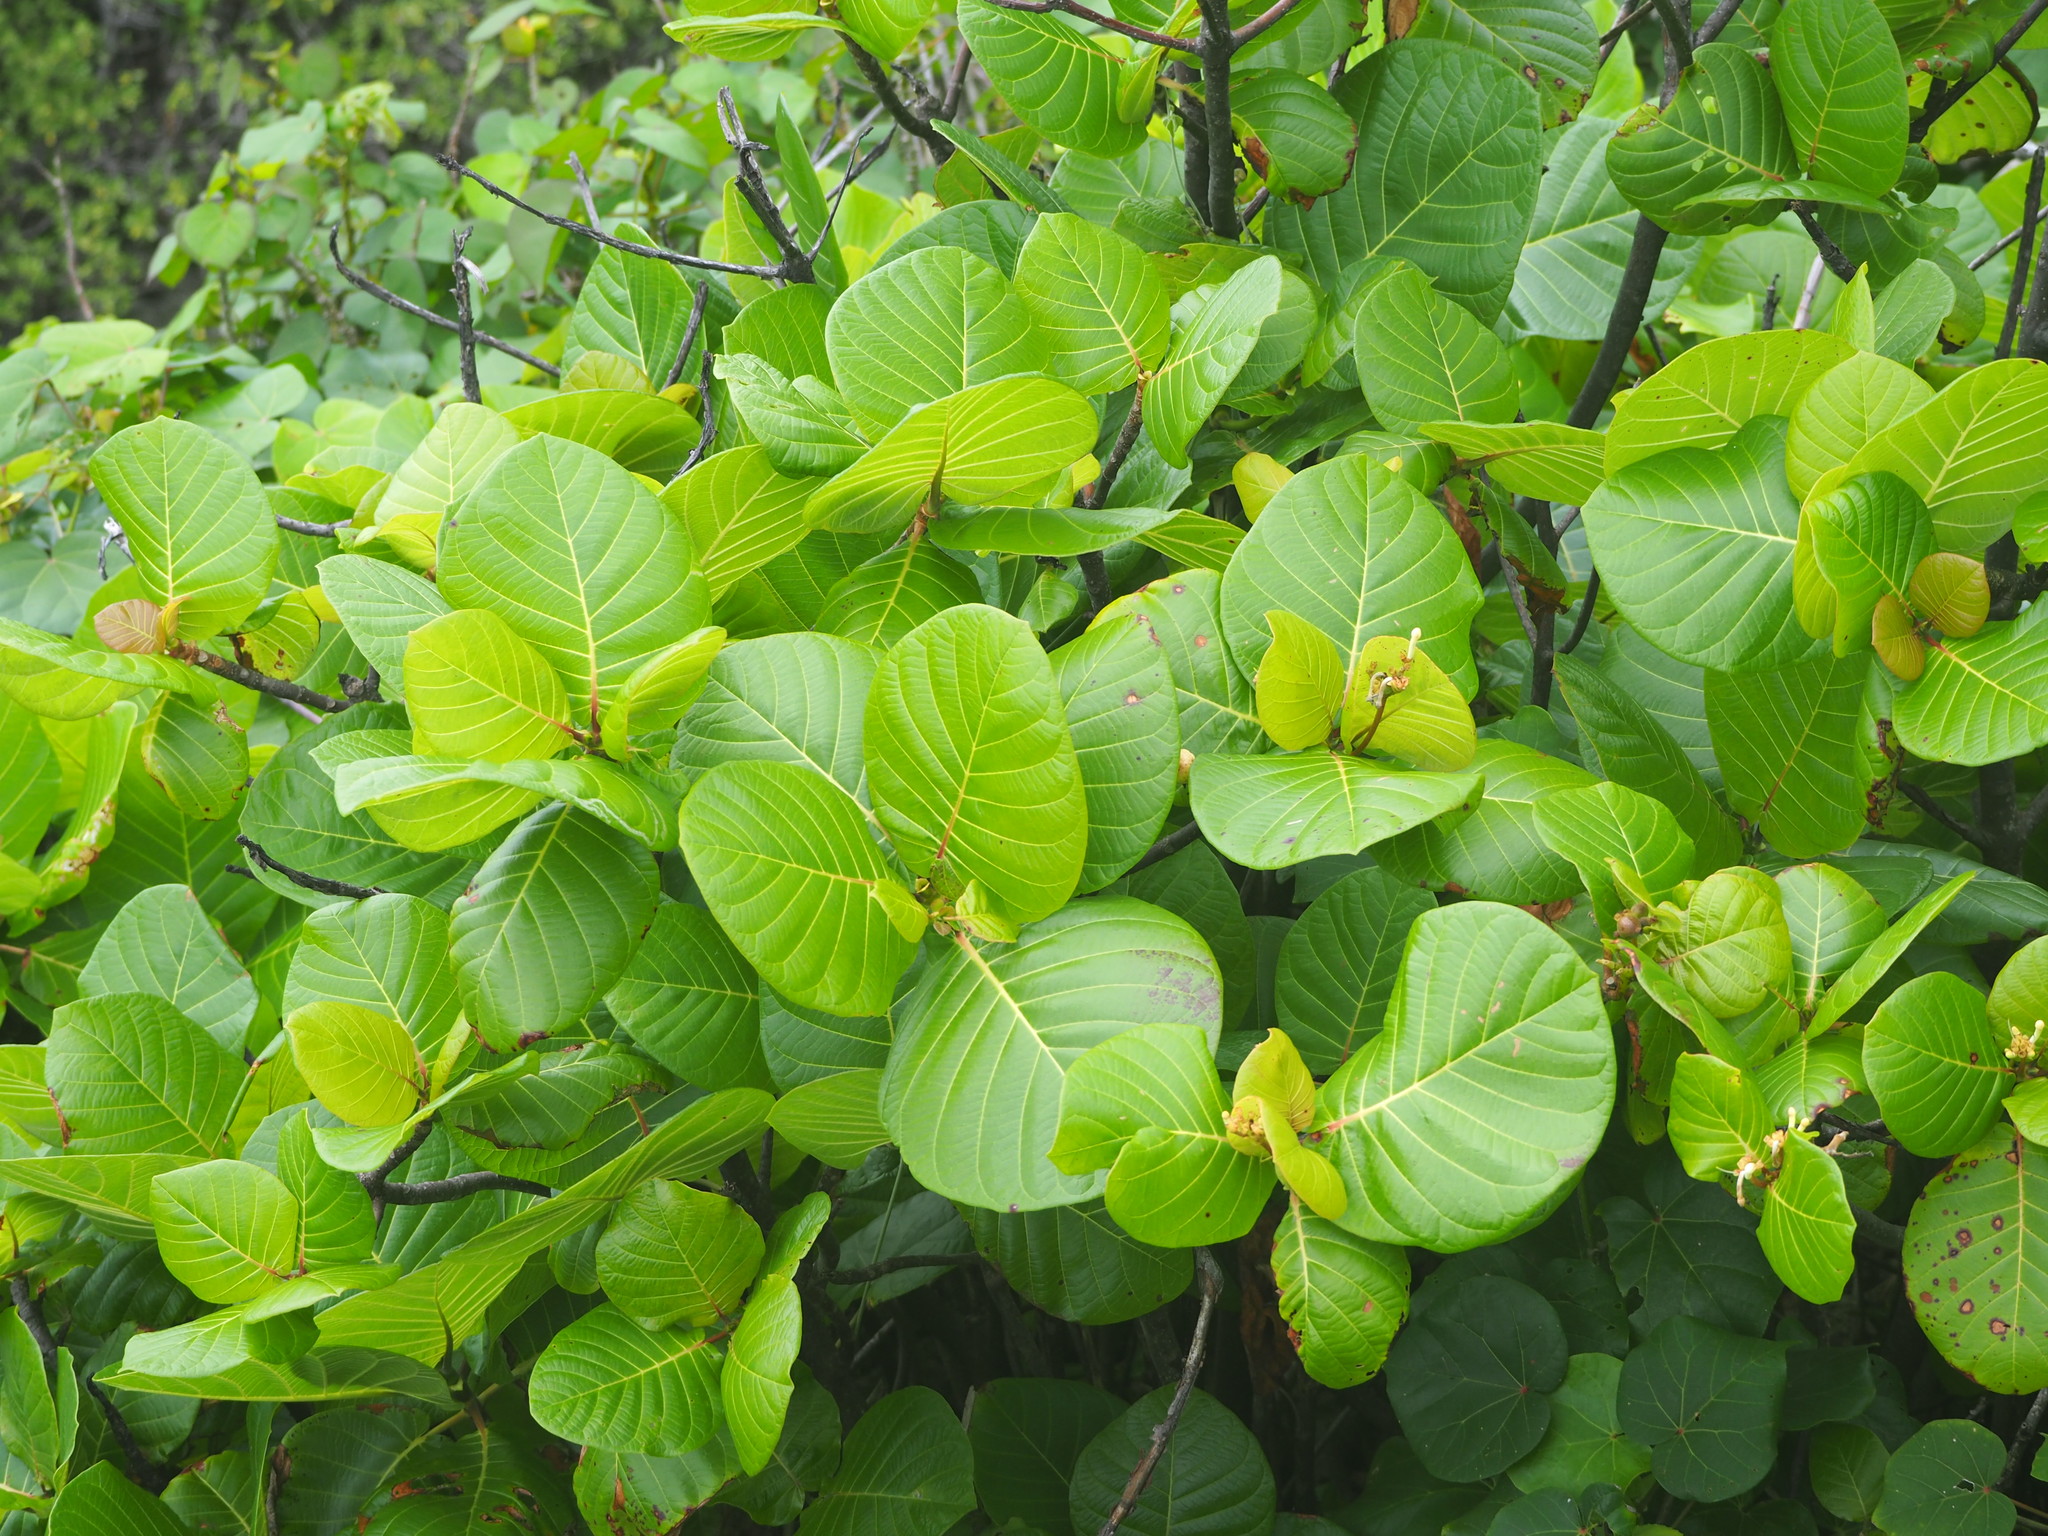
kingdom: Plantae
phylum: Tracheophyta
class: Magnoliopsida
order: Gentianales
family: Rubiaceae
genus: Guettarda
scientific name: Guettarda speciosa
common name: Sea randa
